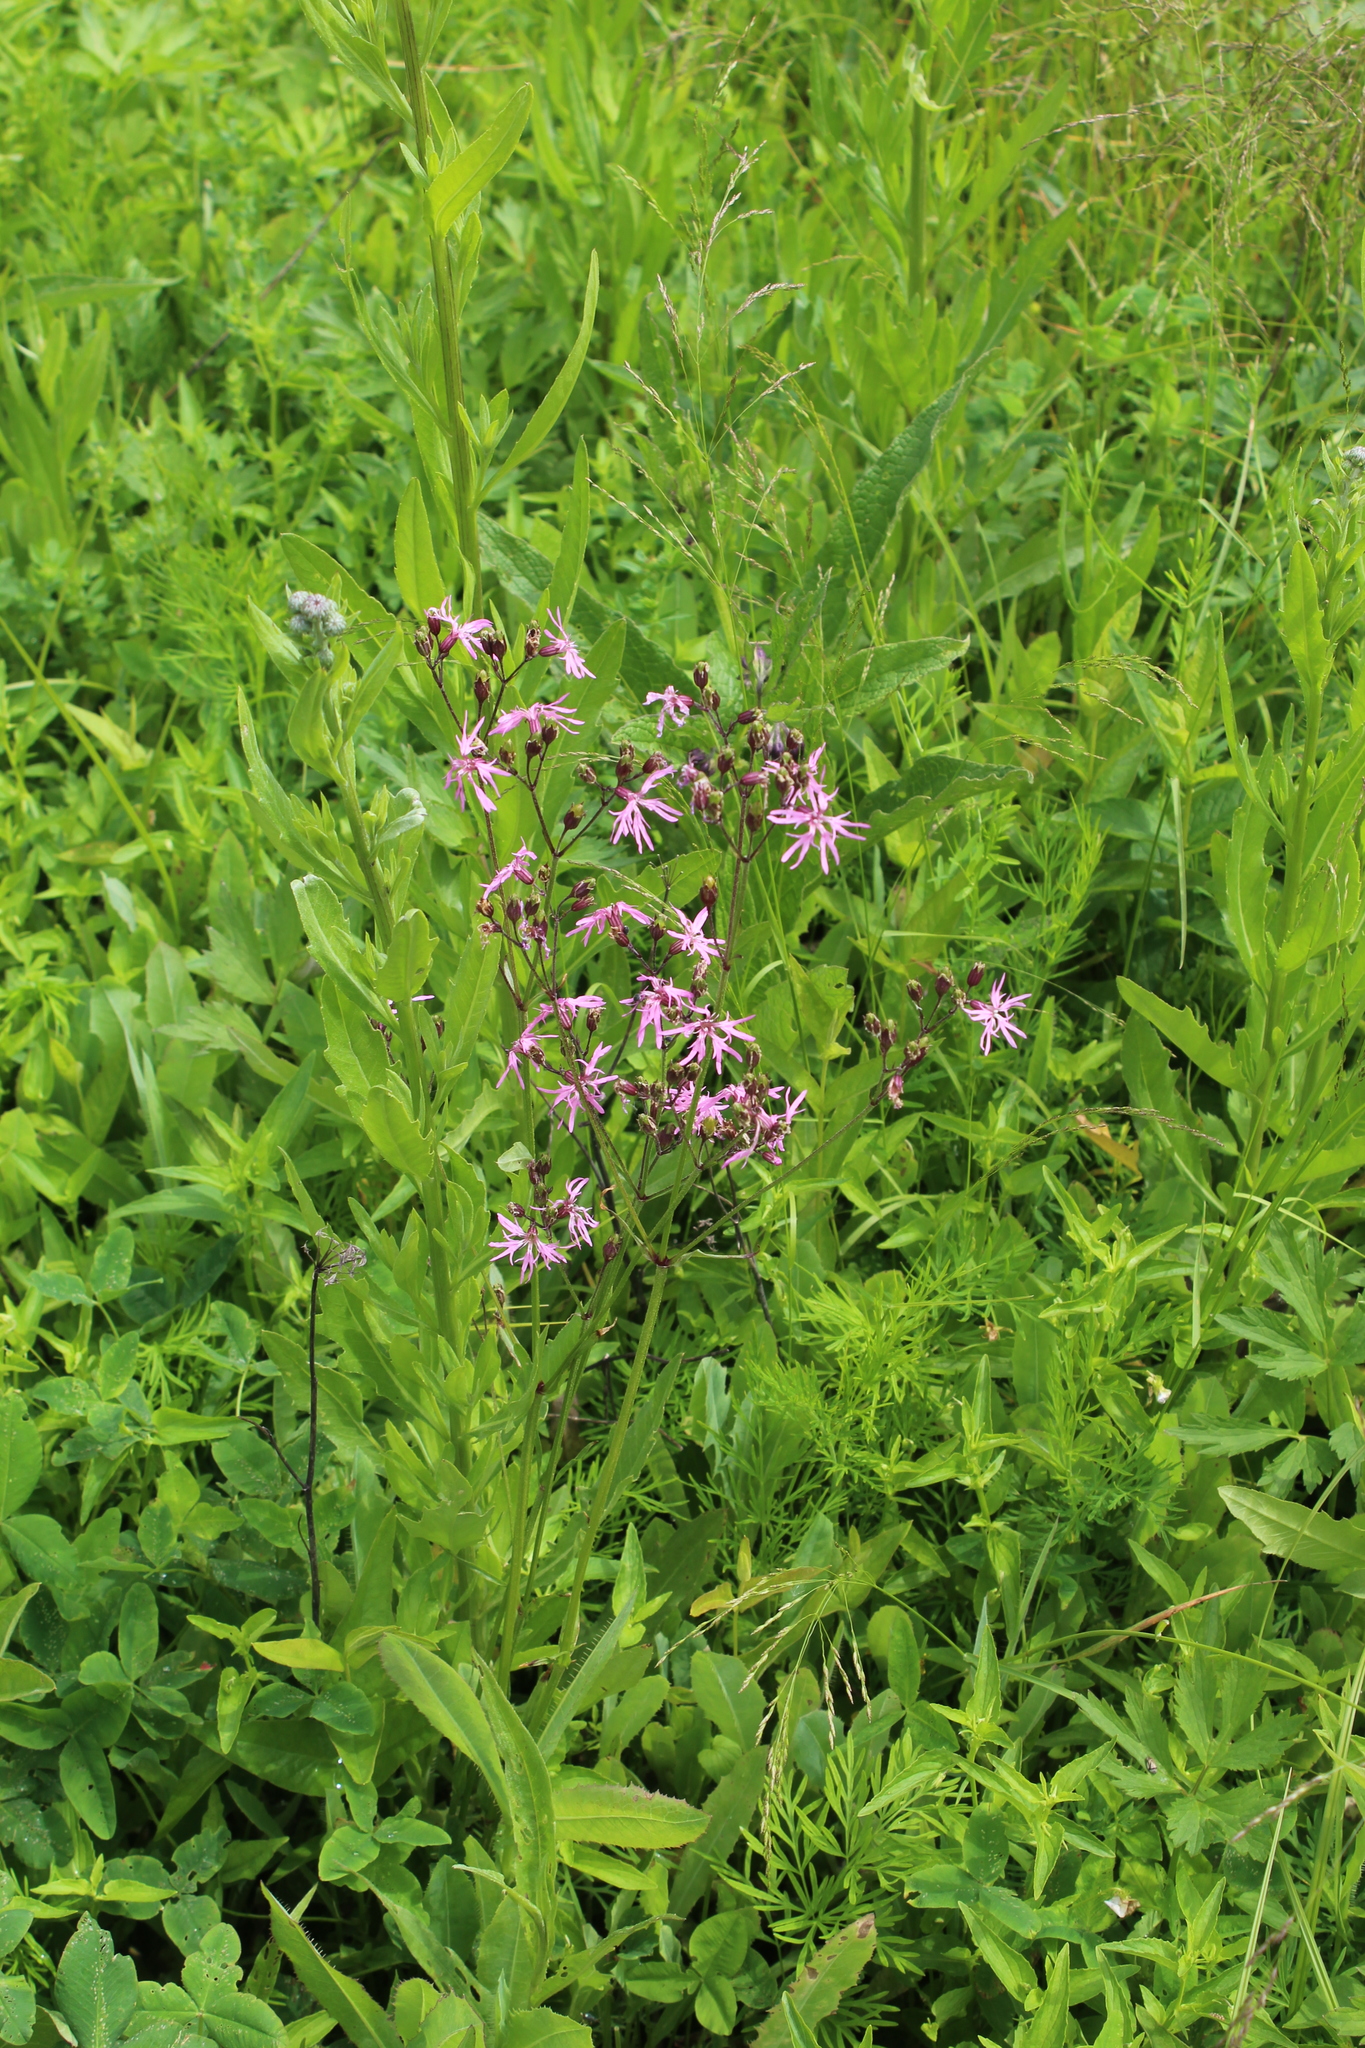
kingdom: Plantae
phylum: Tracheophyta
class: Magnoliopsida
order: Caryophyllales
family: Caryophyllaceae
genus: Silene
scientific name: Silene flos-cuculi
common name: Ragged-robin
